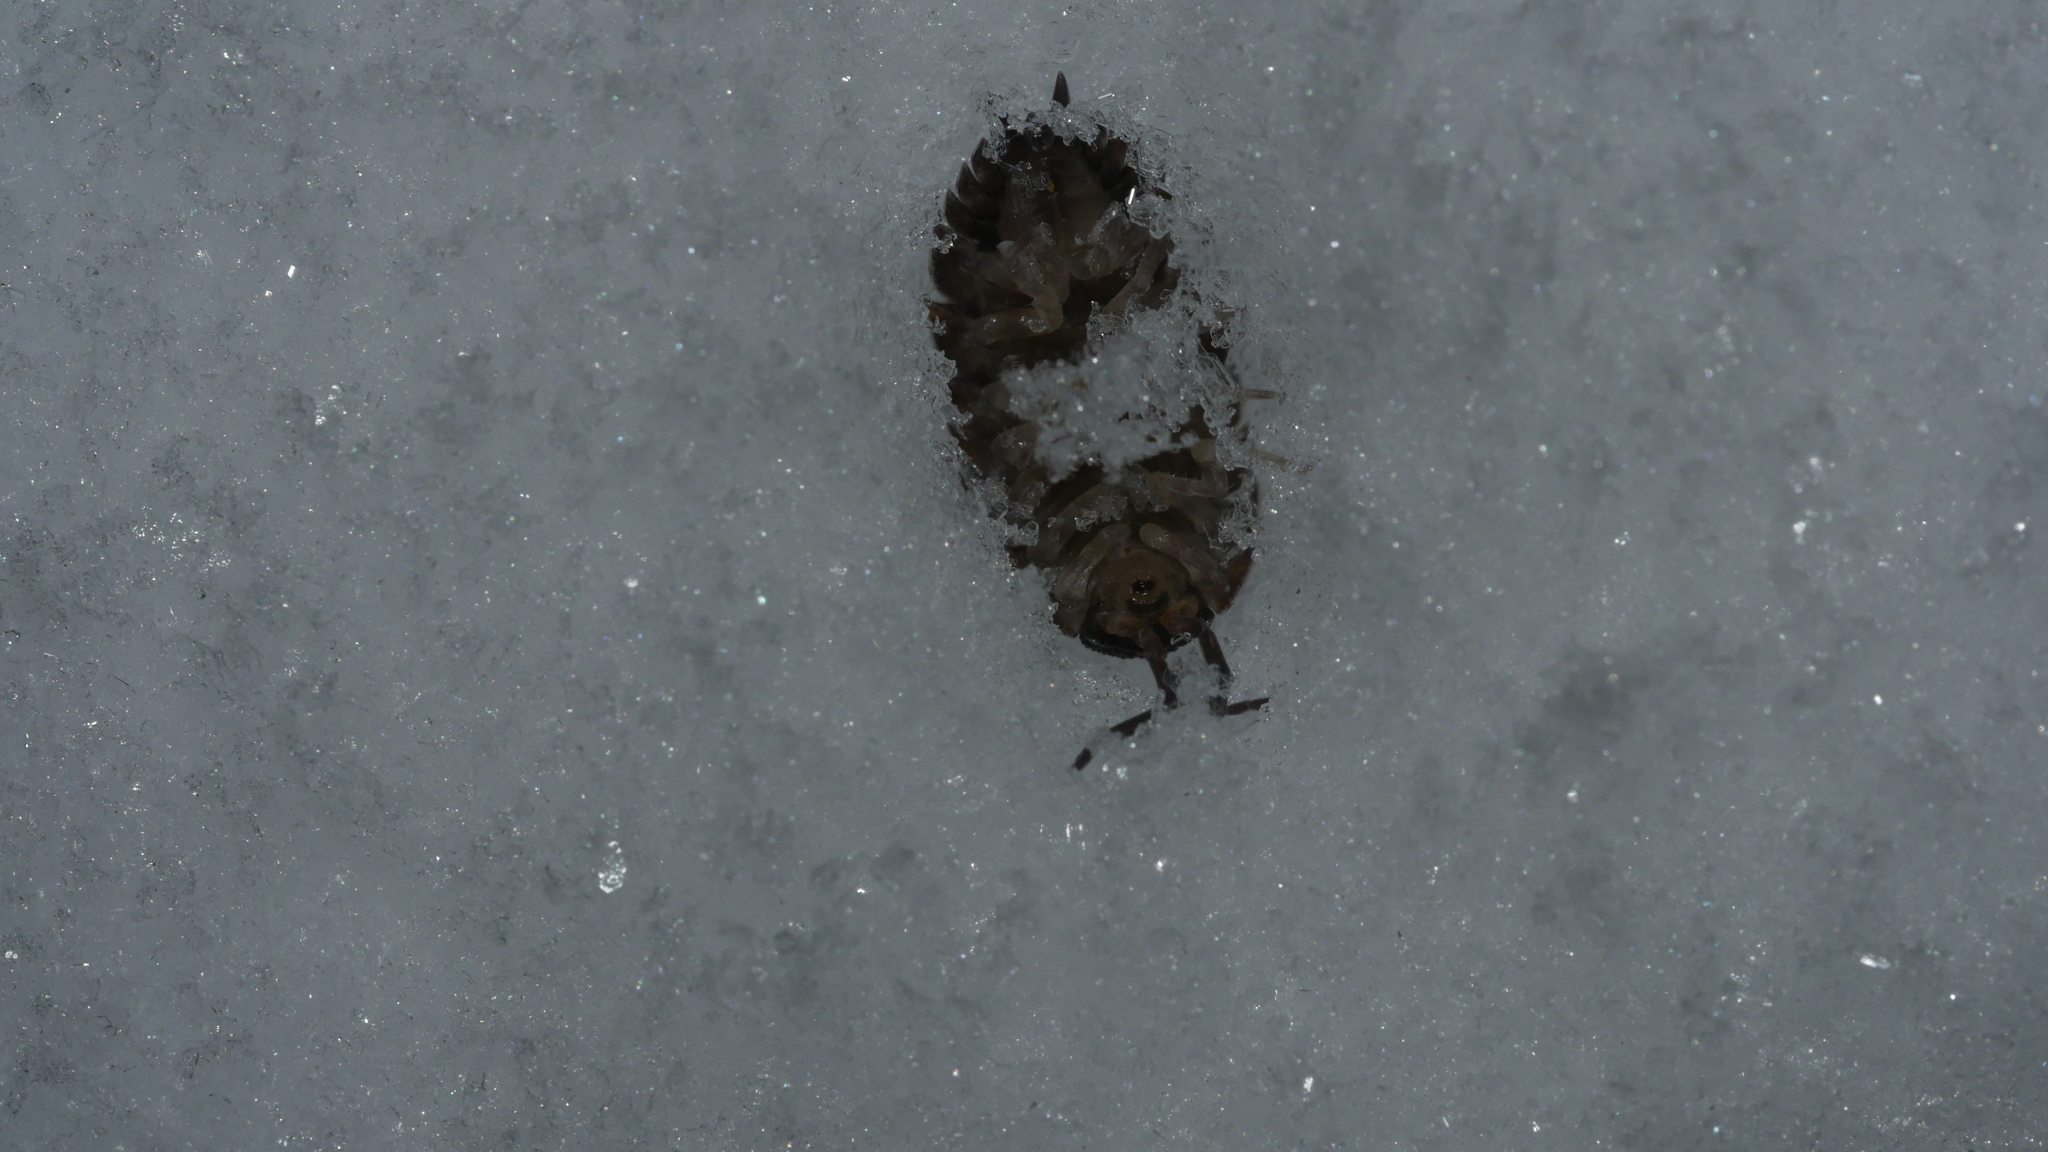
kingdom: Animalia
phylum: Arthropoda
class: Malacostraca
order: Isopoda
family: Porcellionidae
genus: Porcellio
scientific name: Porcellio scaber
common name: Common rough woodlouse
